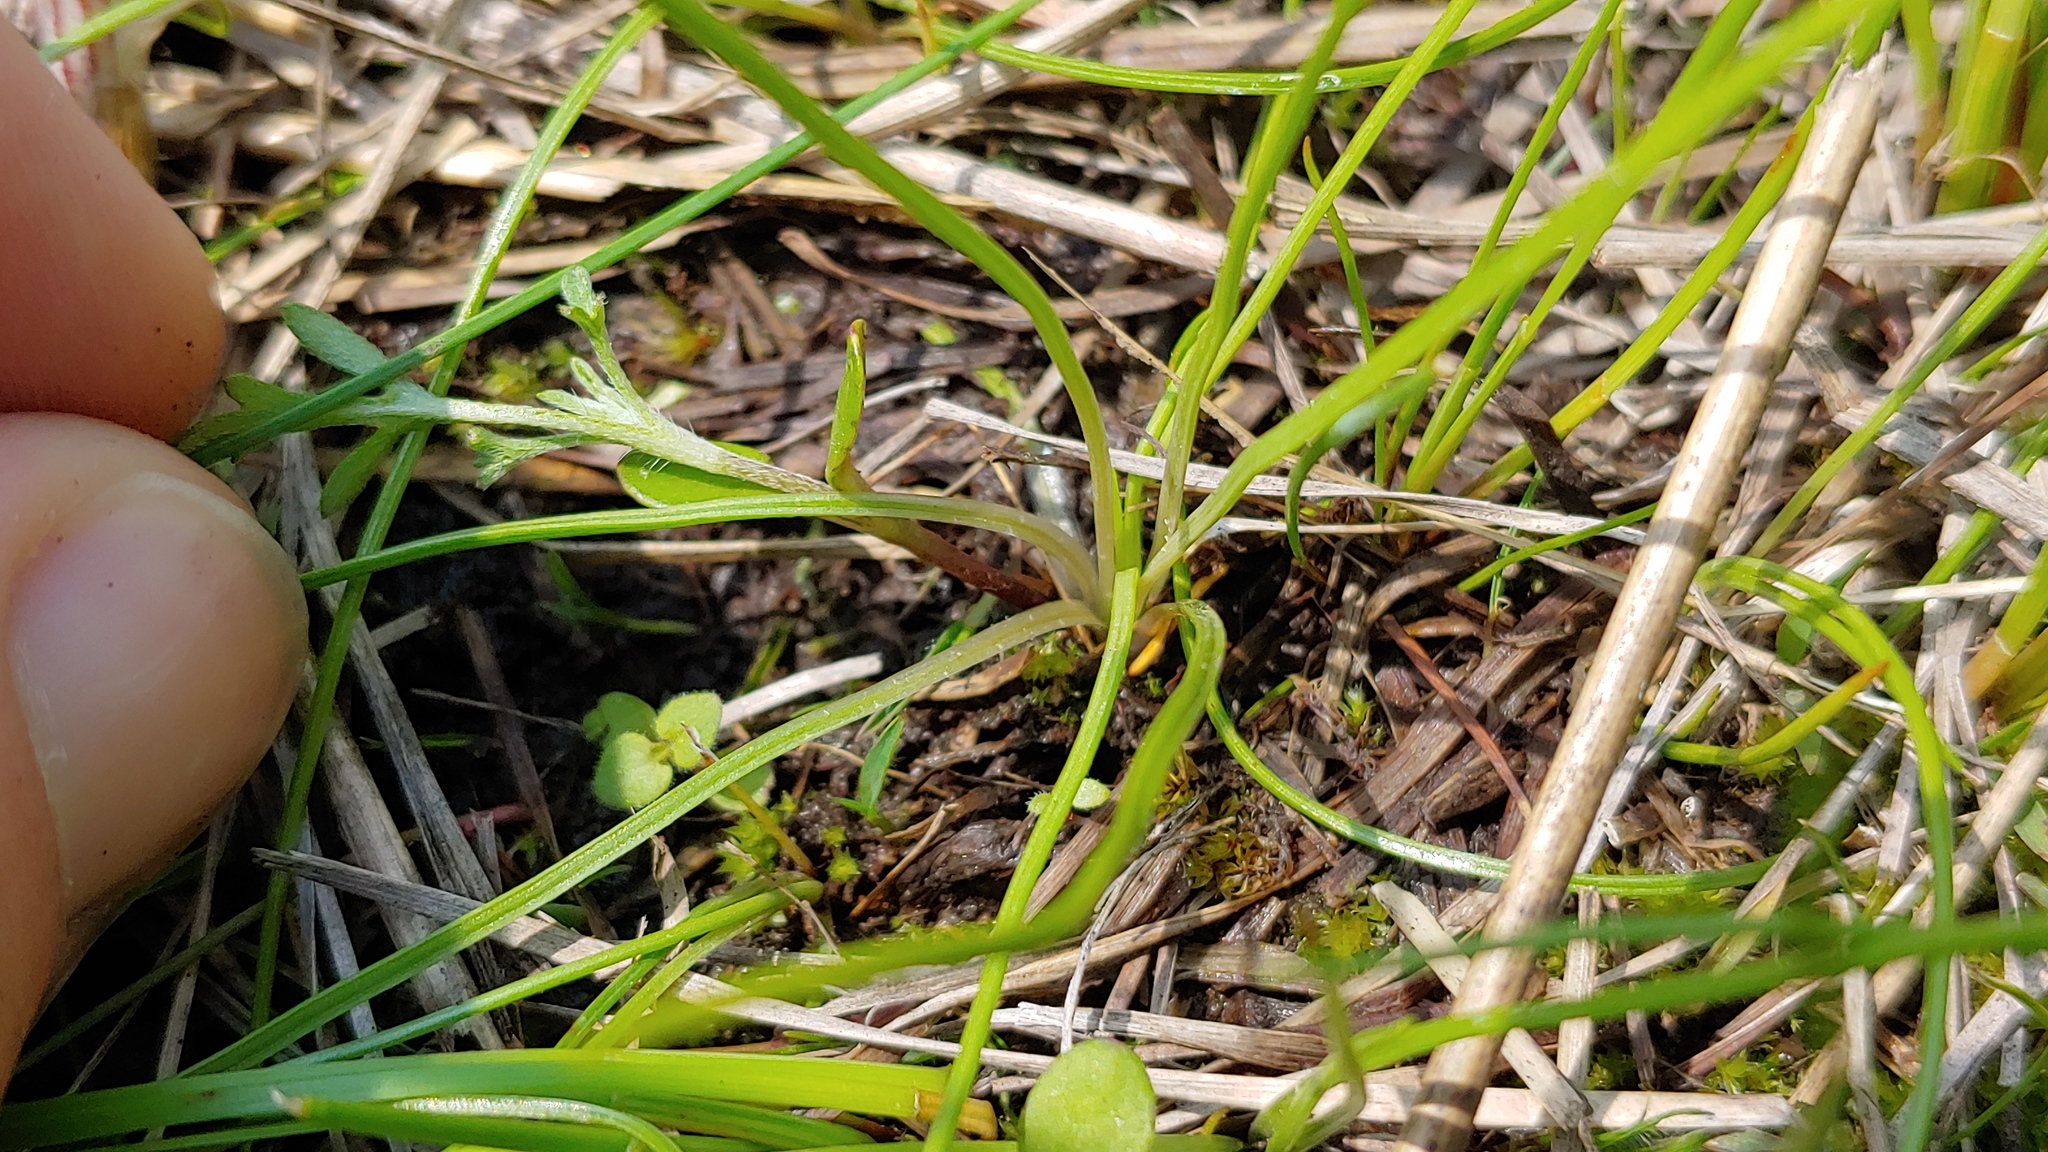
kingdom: Plantae
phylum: Tracheophyta
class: Lycopodiopsida
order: Isoetales
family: Isoetaceae
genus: Isoetes
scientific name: Isoetes butleri
